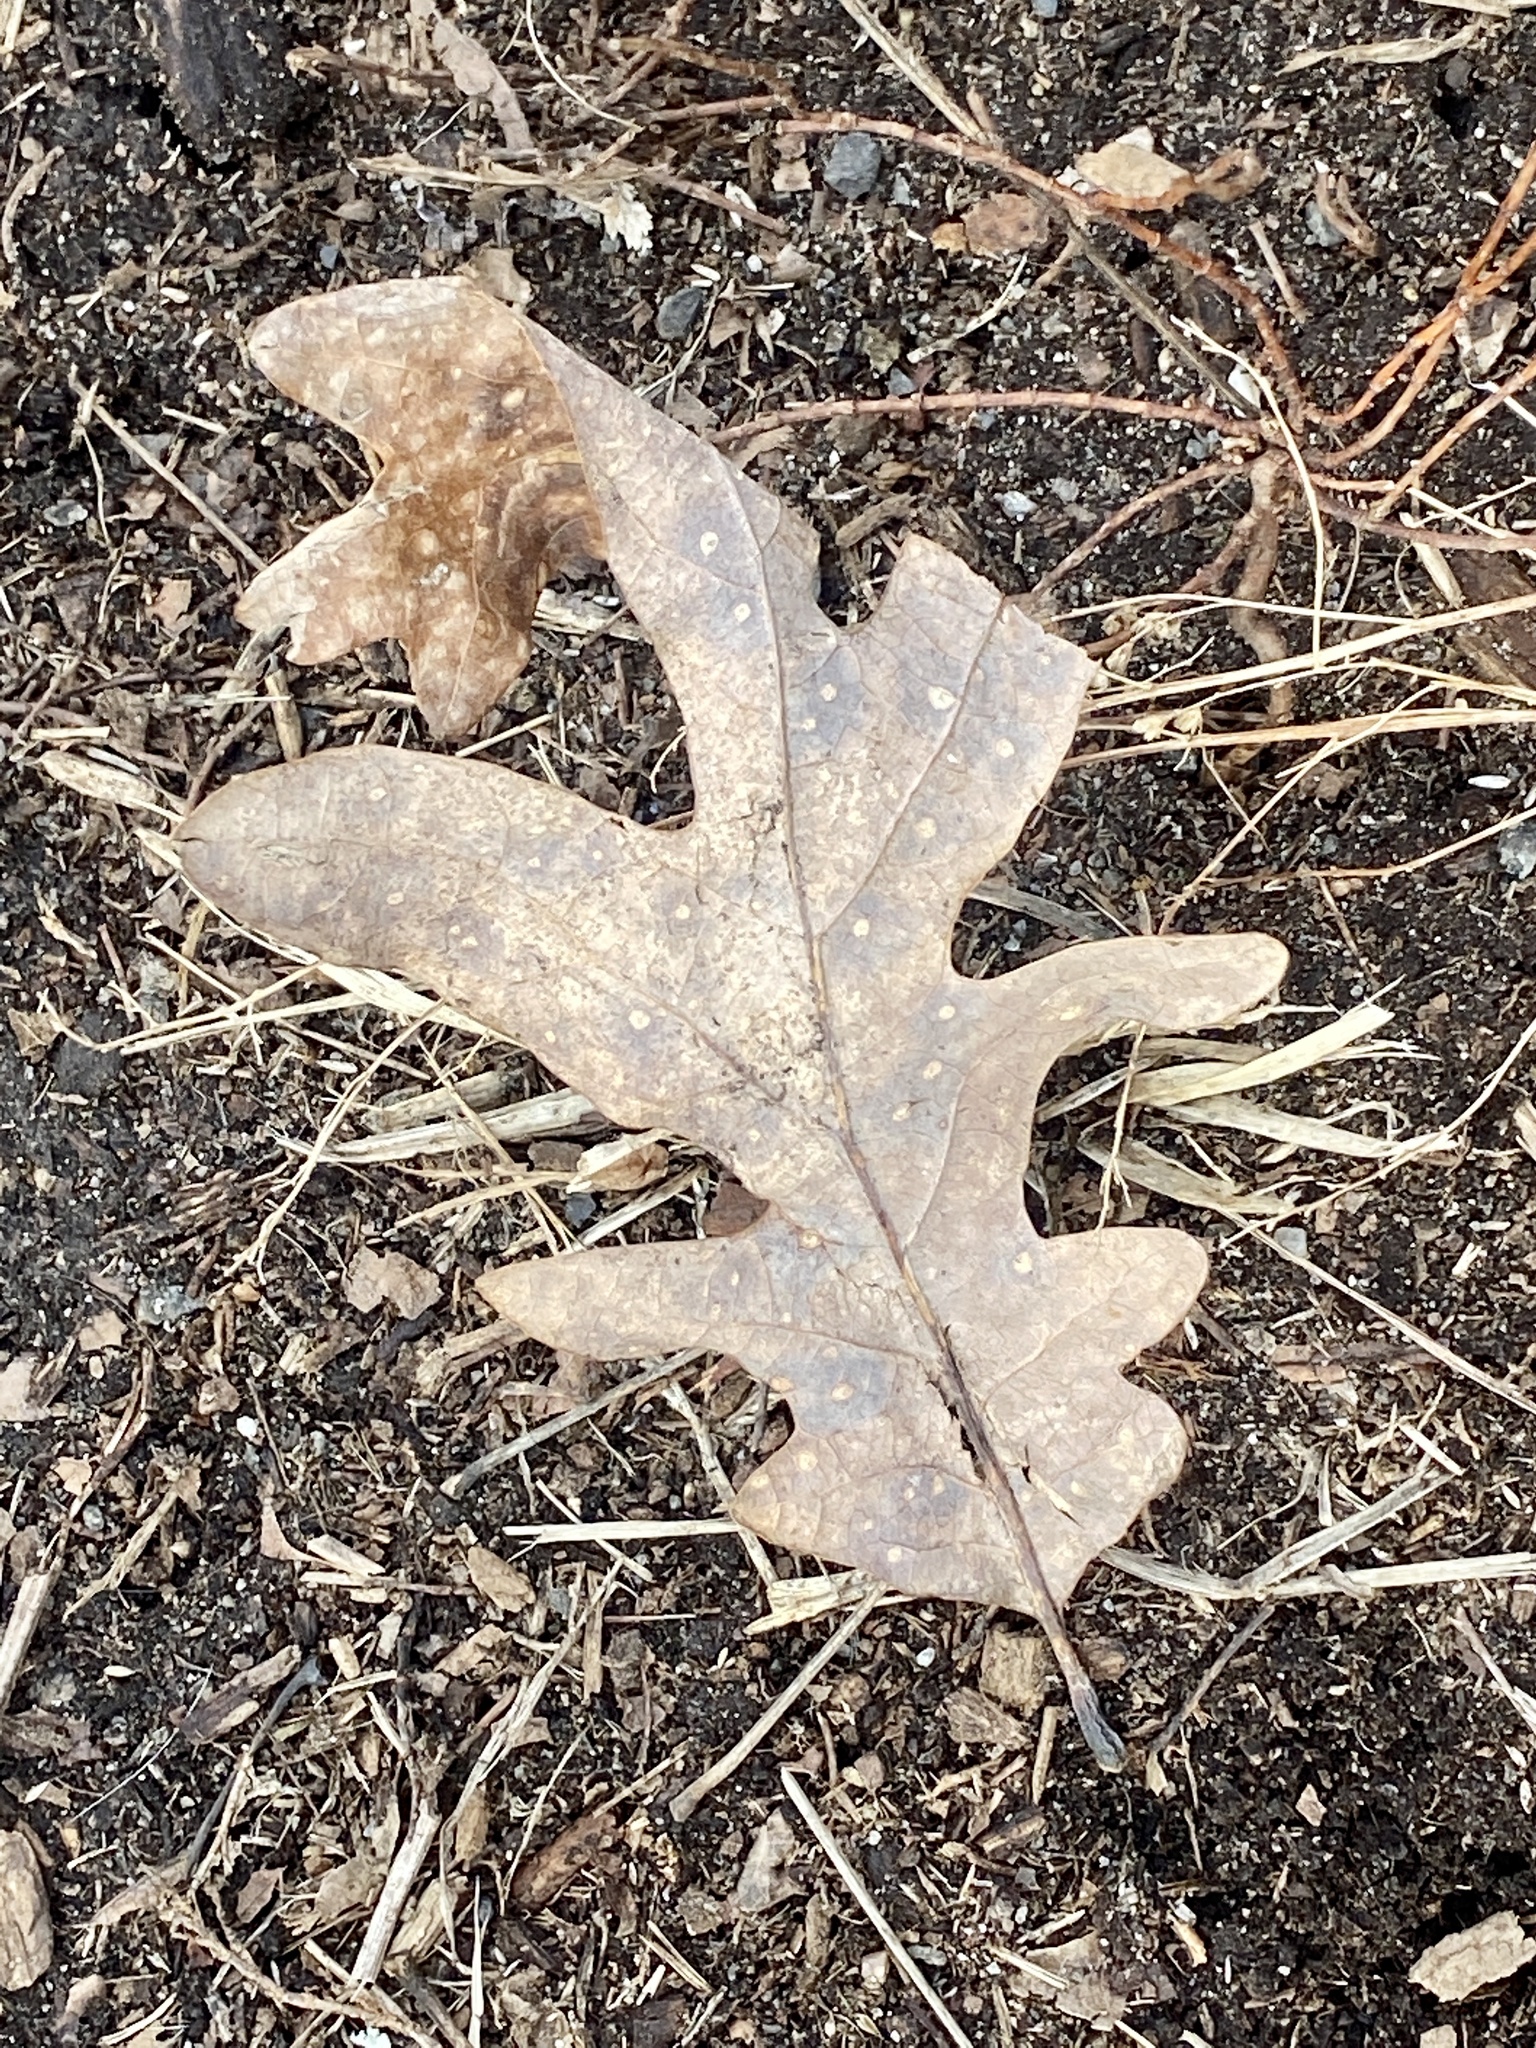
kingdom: Plantae
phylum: Tracheophyta
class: Magnoliopsida
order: Fagales
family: Fagaceae
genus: Quercus
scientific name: Quercus alba
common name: White oak
